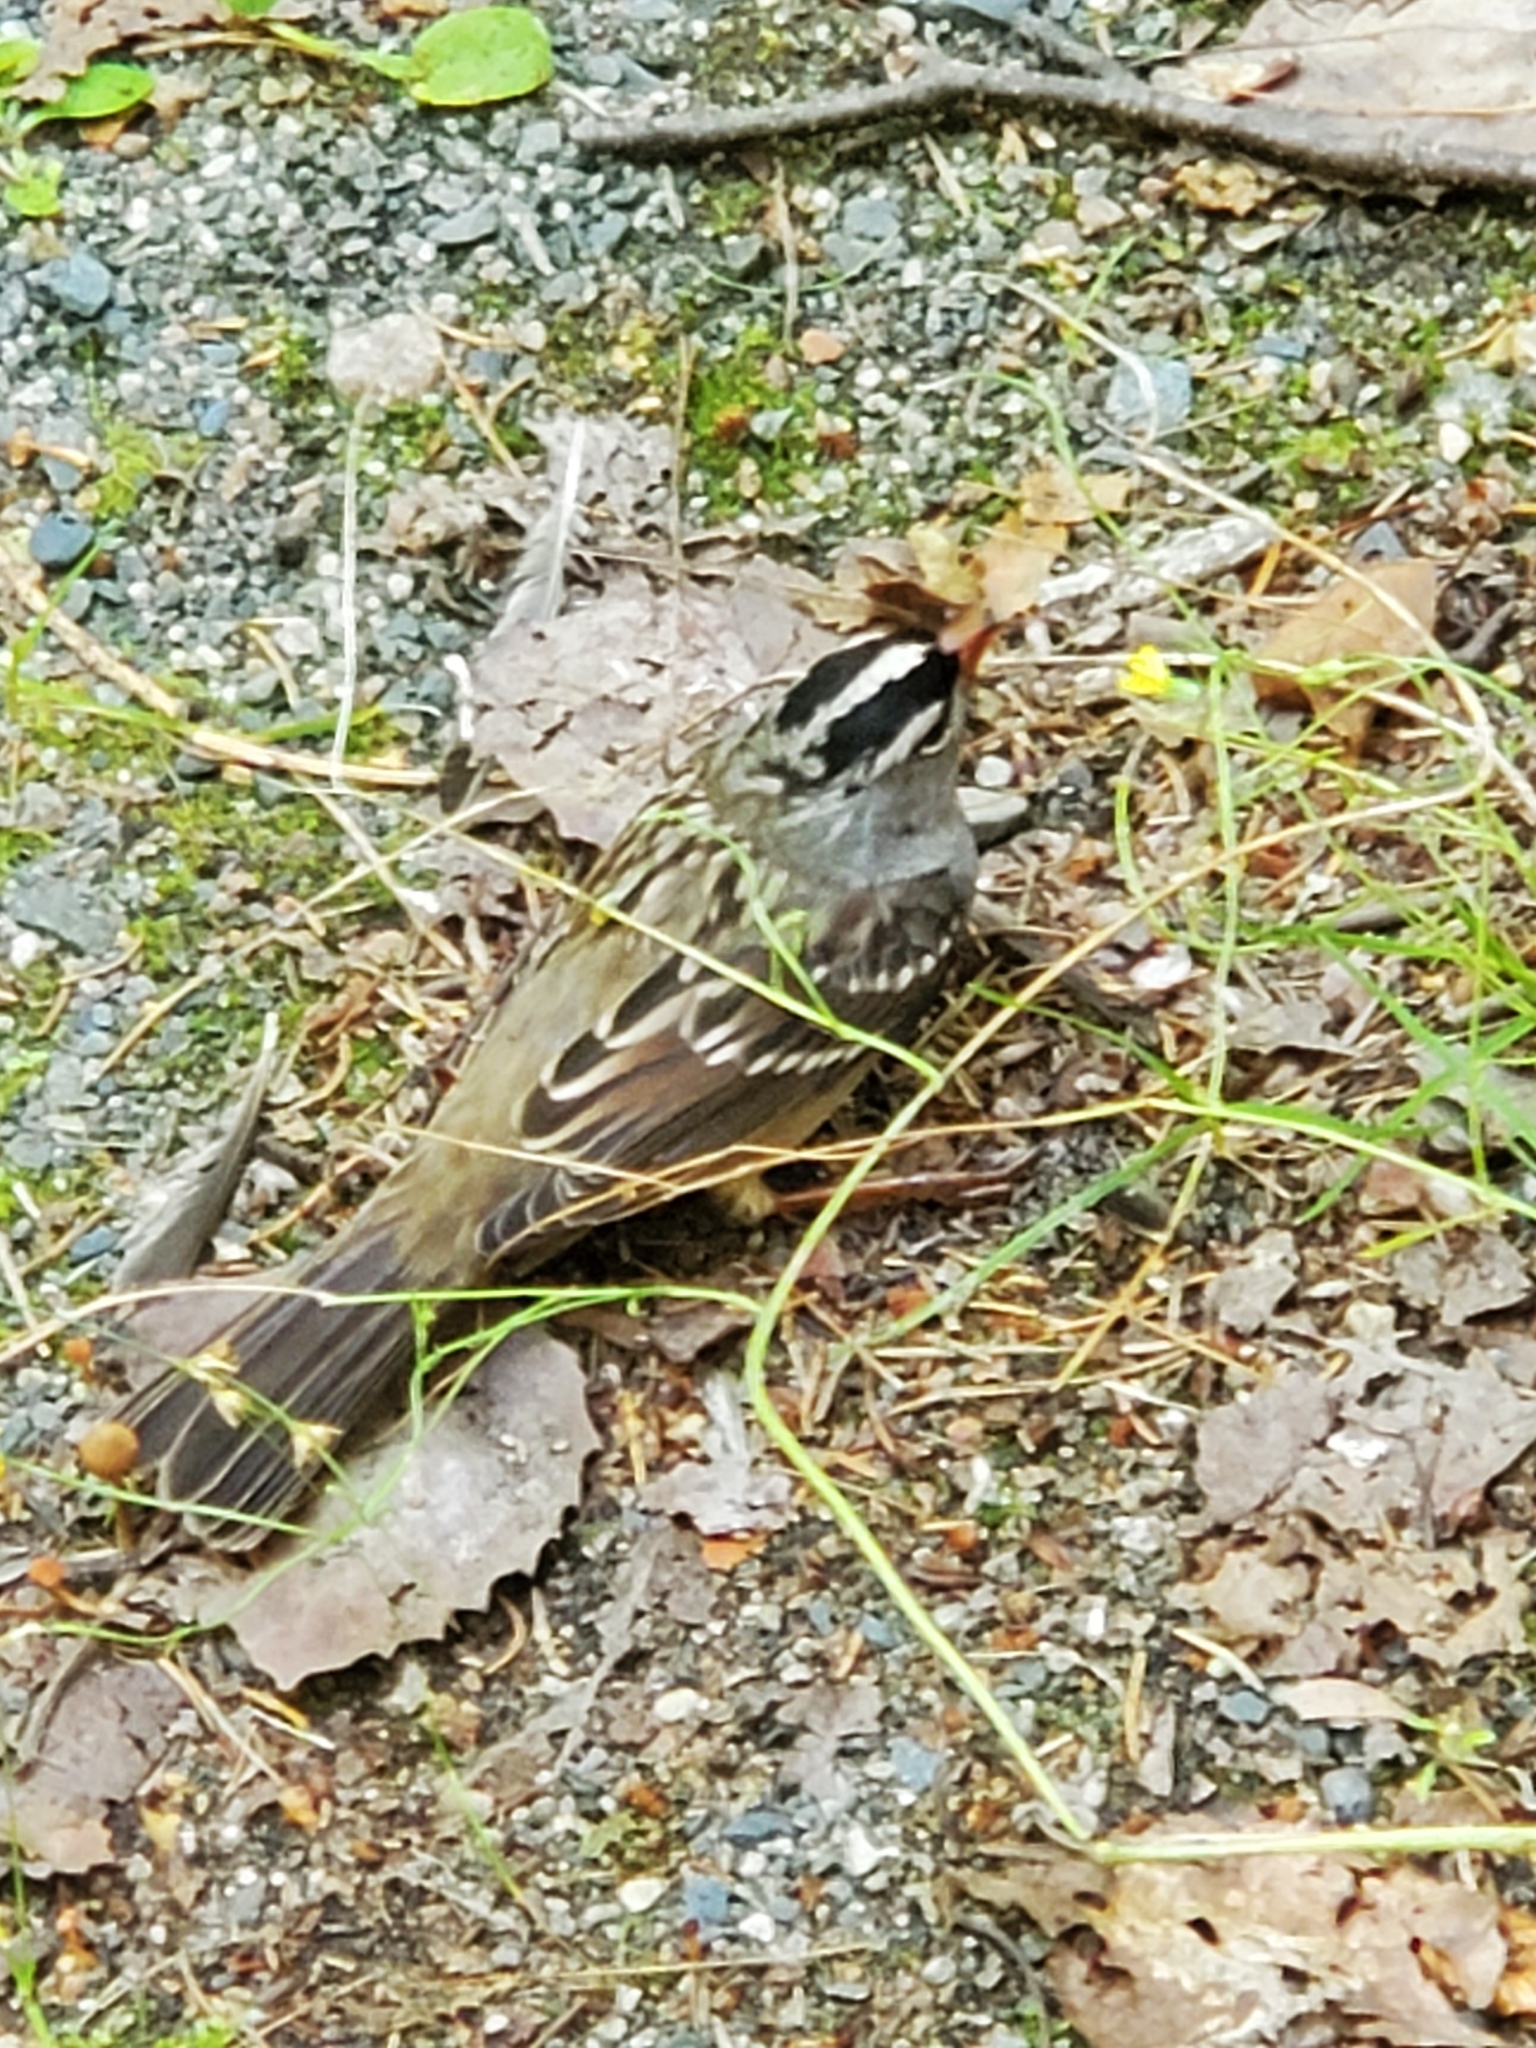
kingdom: Animalia
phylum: Chordata
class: Aves
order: Passeriformes
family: Passerellidae
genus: Zonotrichia
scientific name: Zonotrichia leucophrys
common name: White-crowned sparrow
